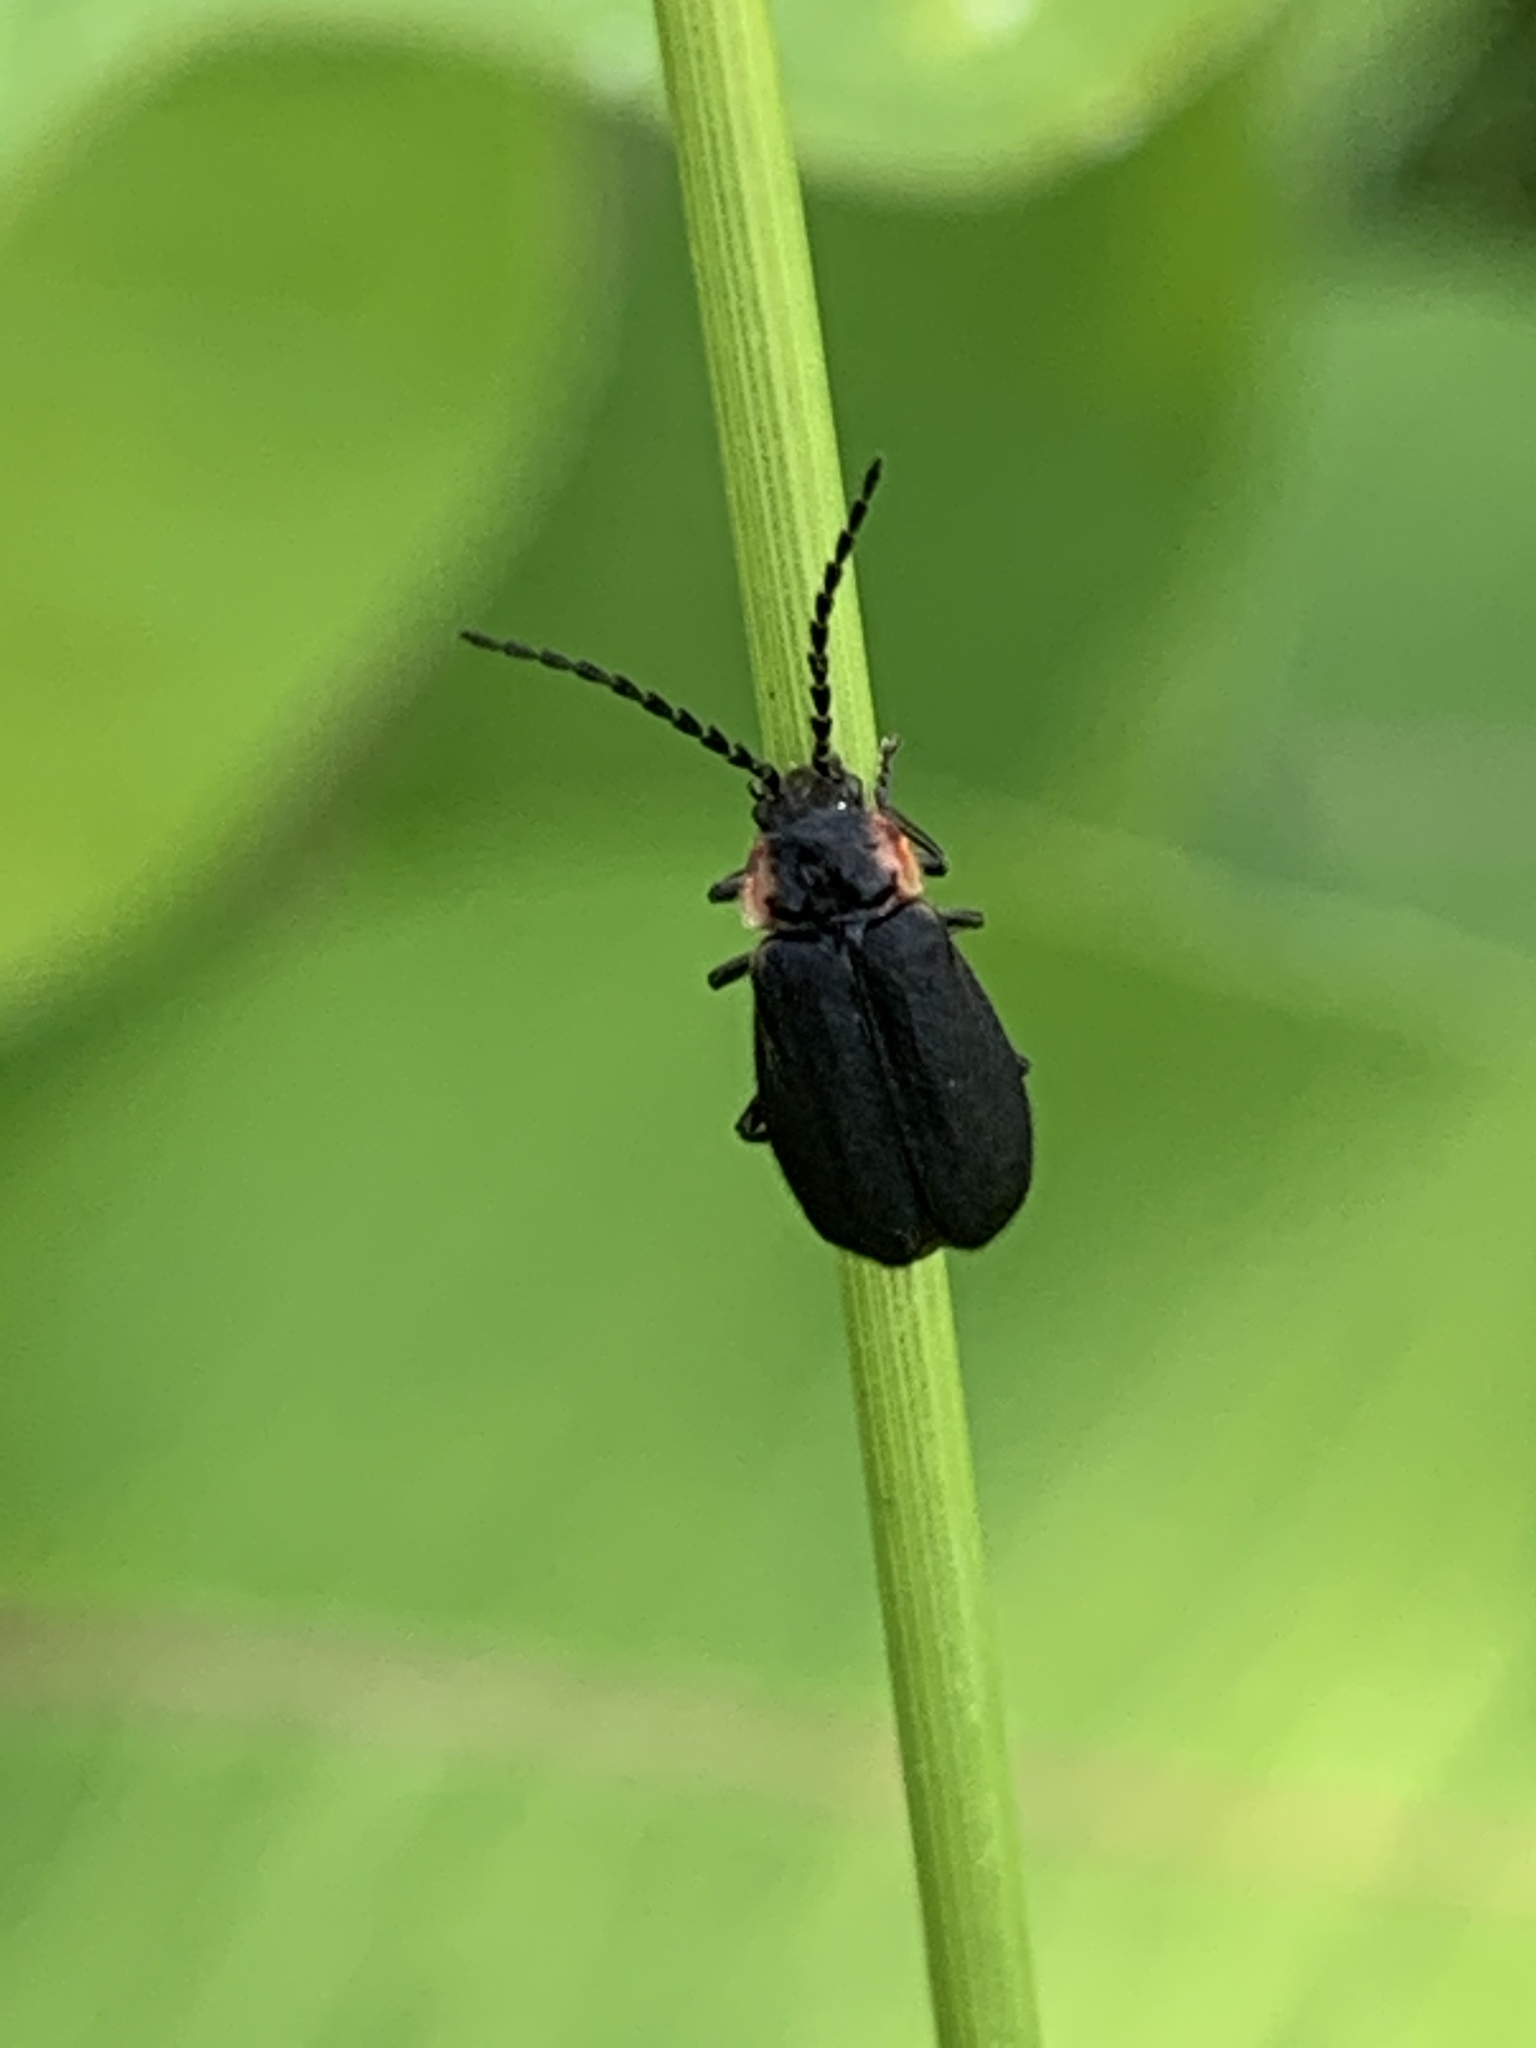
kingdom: Animalia
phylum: Arthropoda
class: Insecta
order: Coleoptera
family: Cantharidae
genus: Polemius
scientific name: Polemius laticornis
